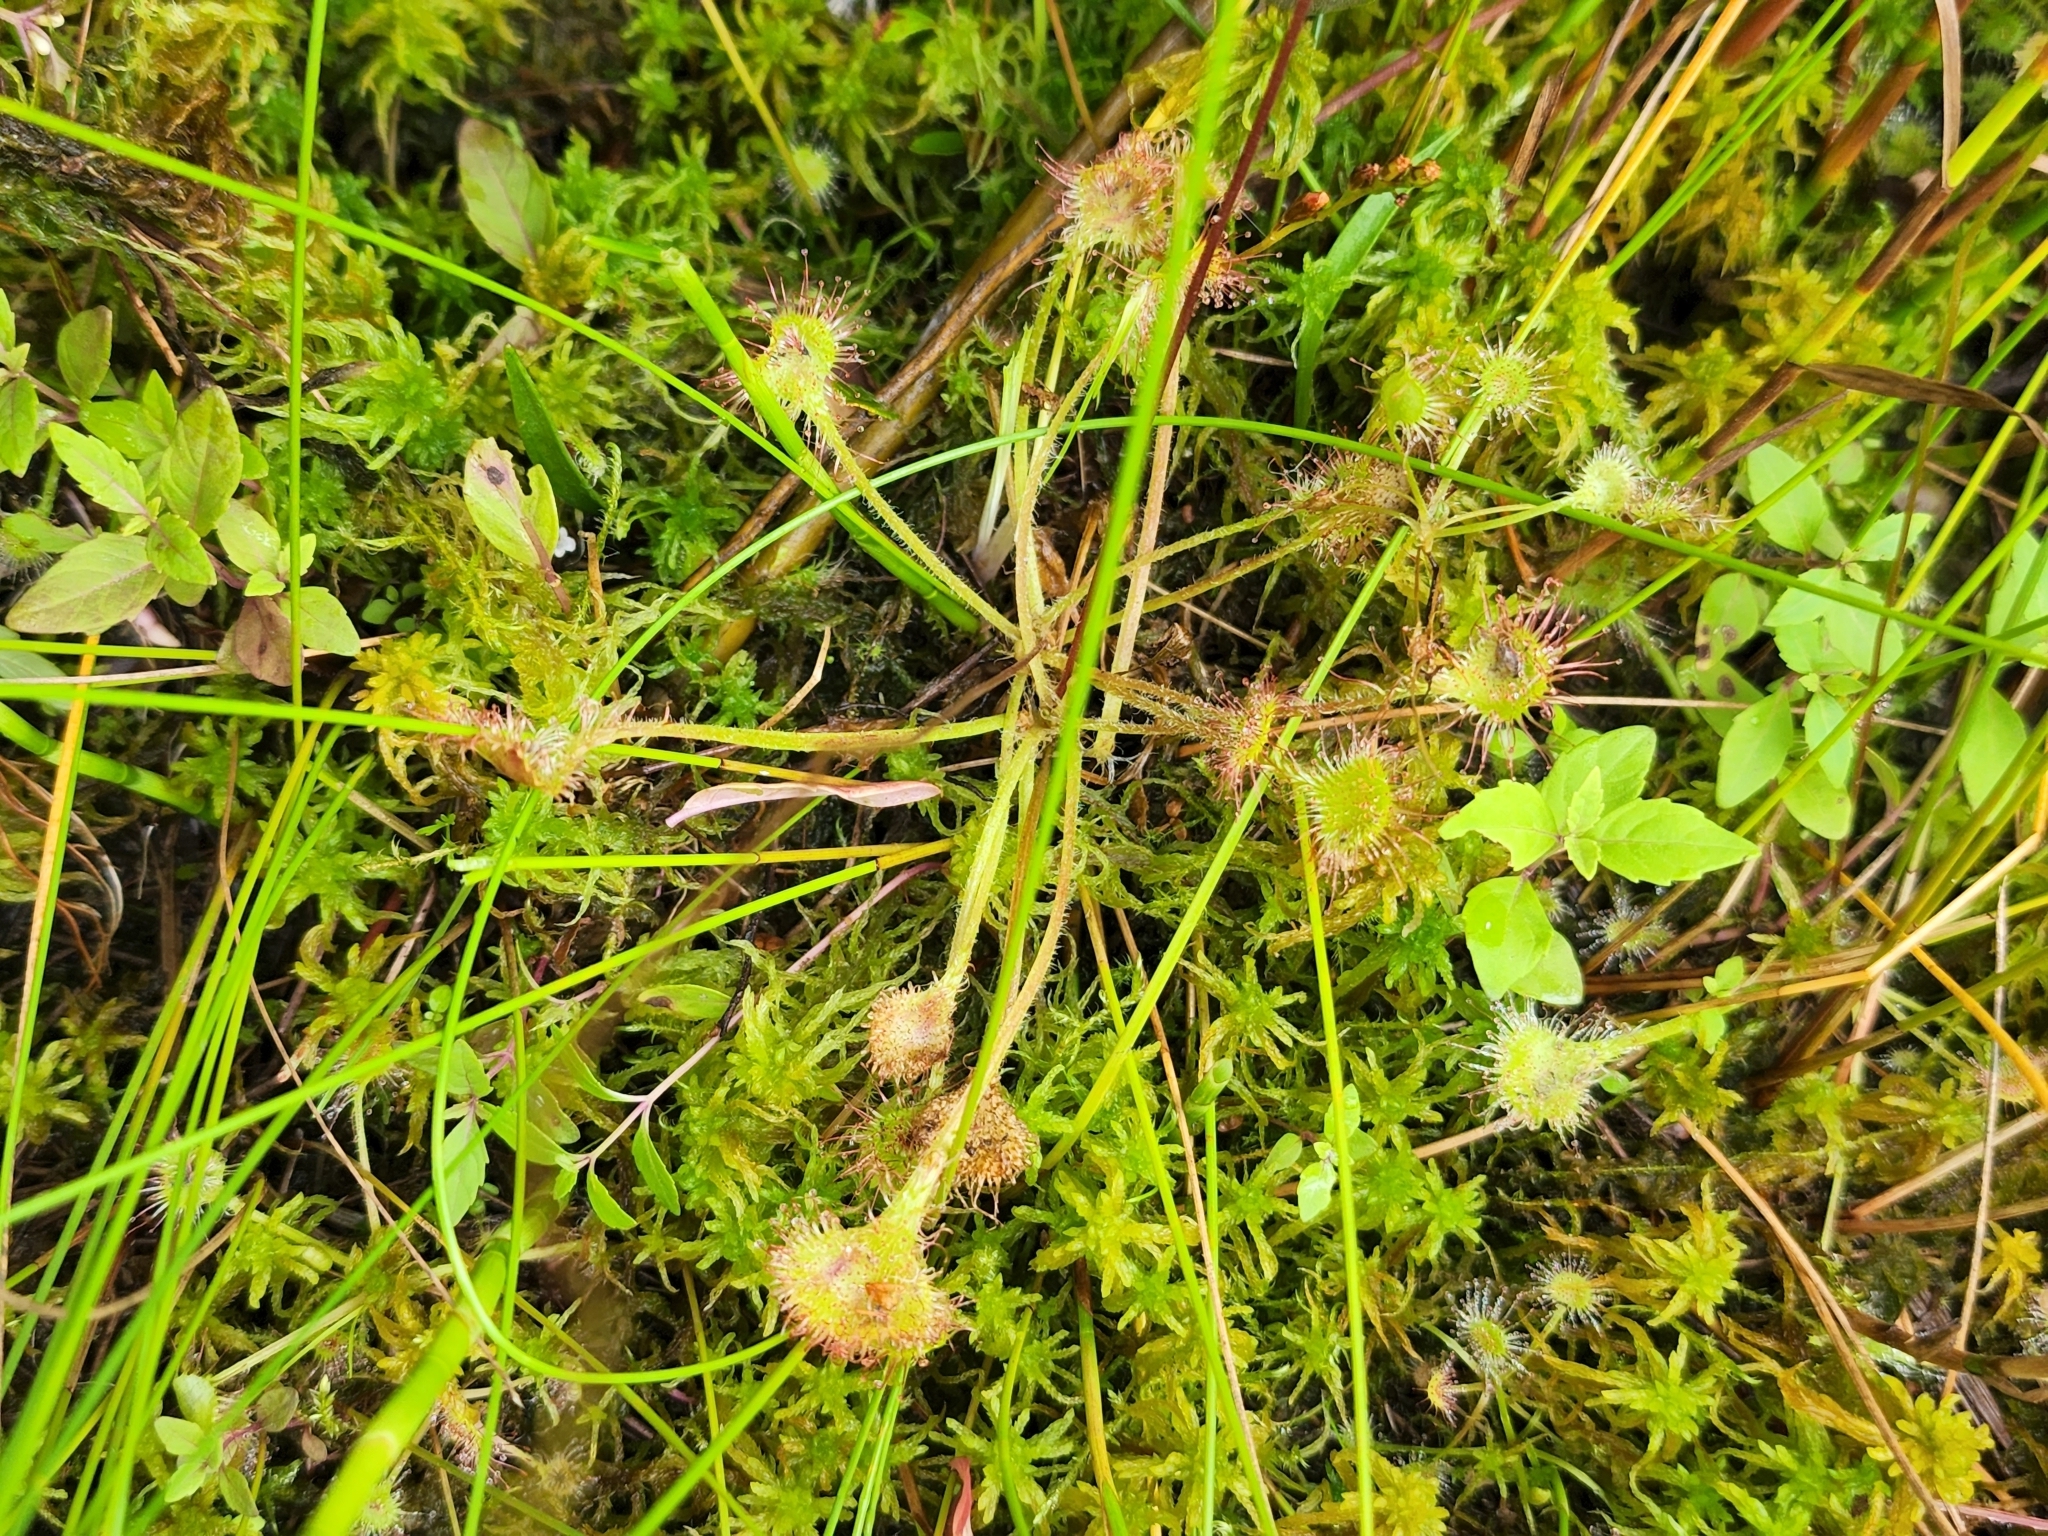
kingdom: Plantae
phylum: Tracheophyta
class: Magnoliopsida
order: Caryophyllales
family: Droseraceae
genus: Drosera
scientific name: Drosera rotundifolia
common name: Round-leaved sundew
